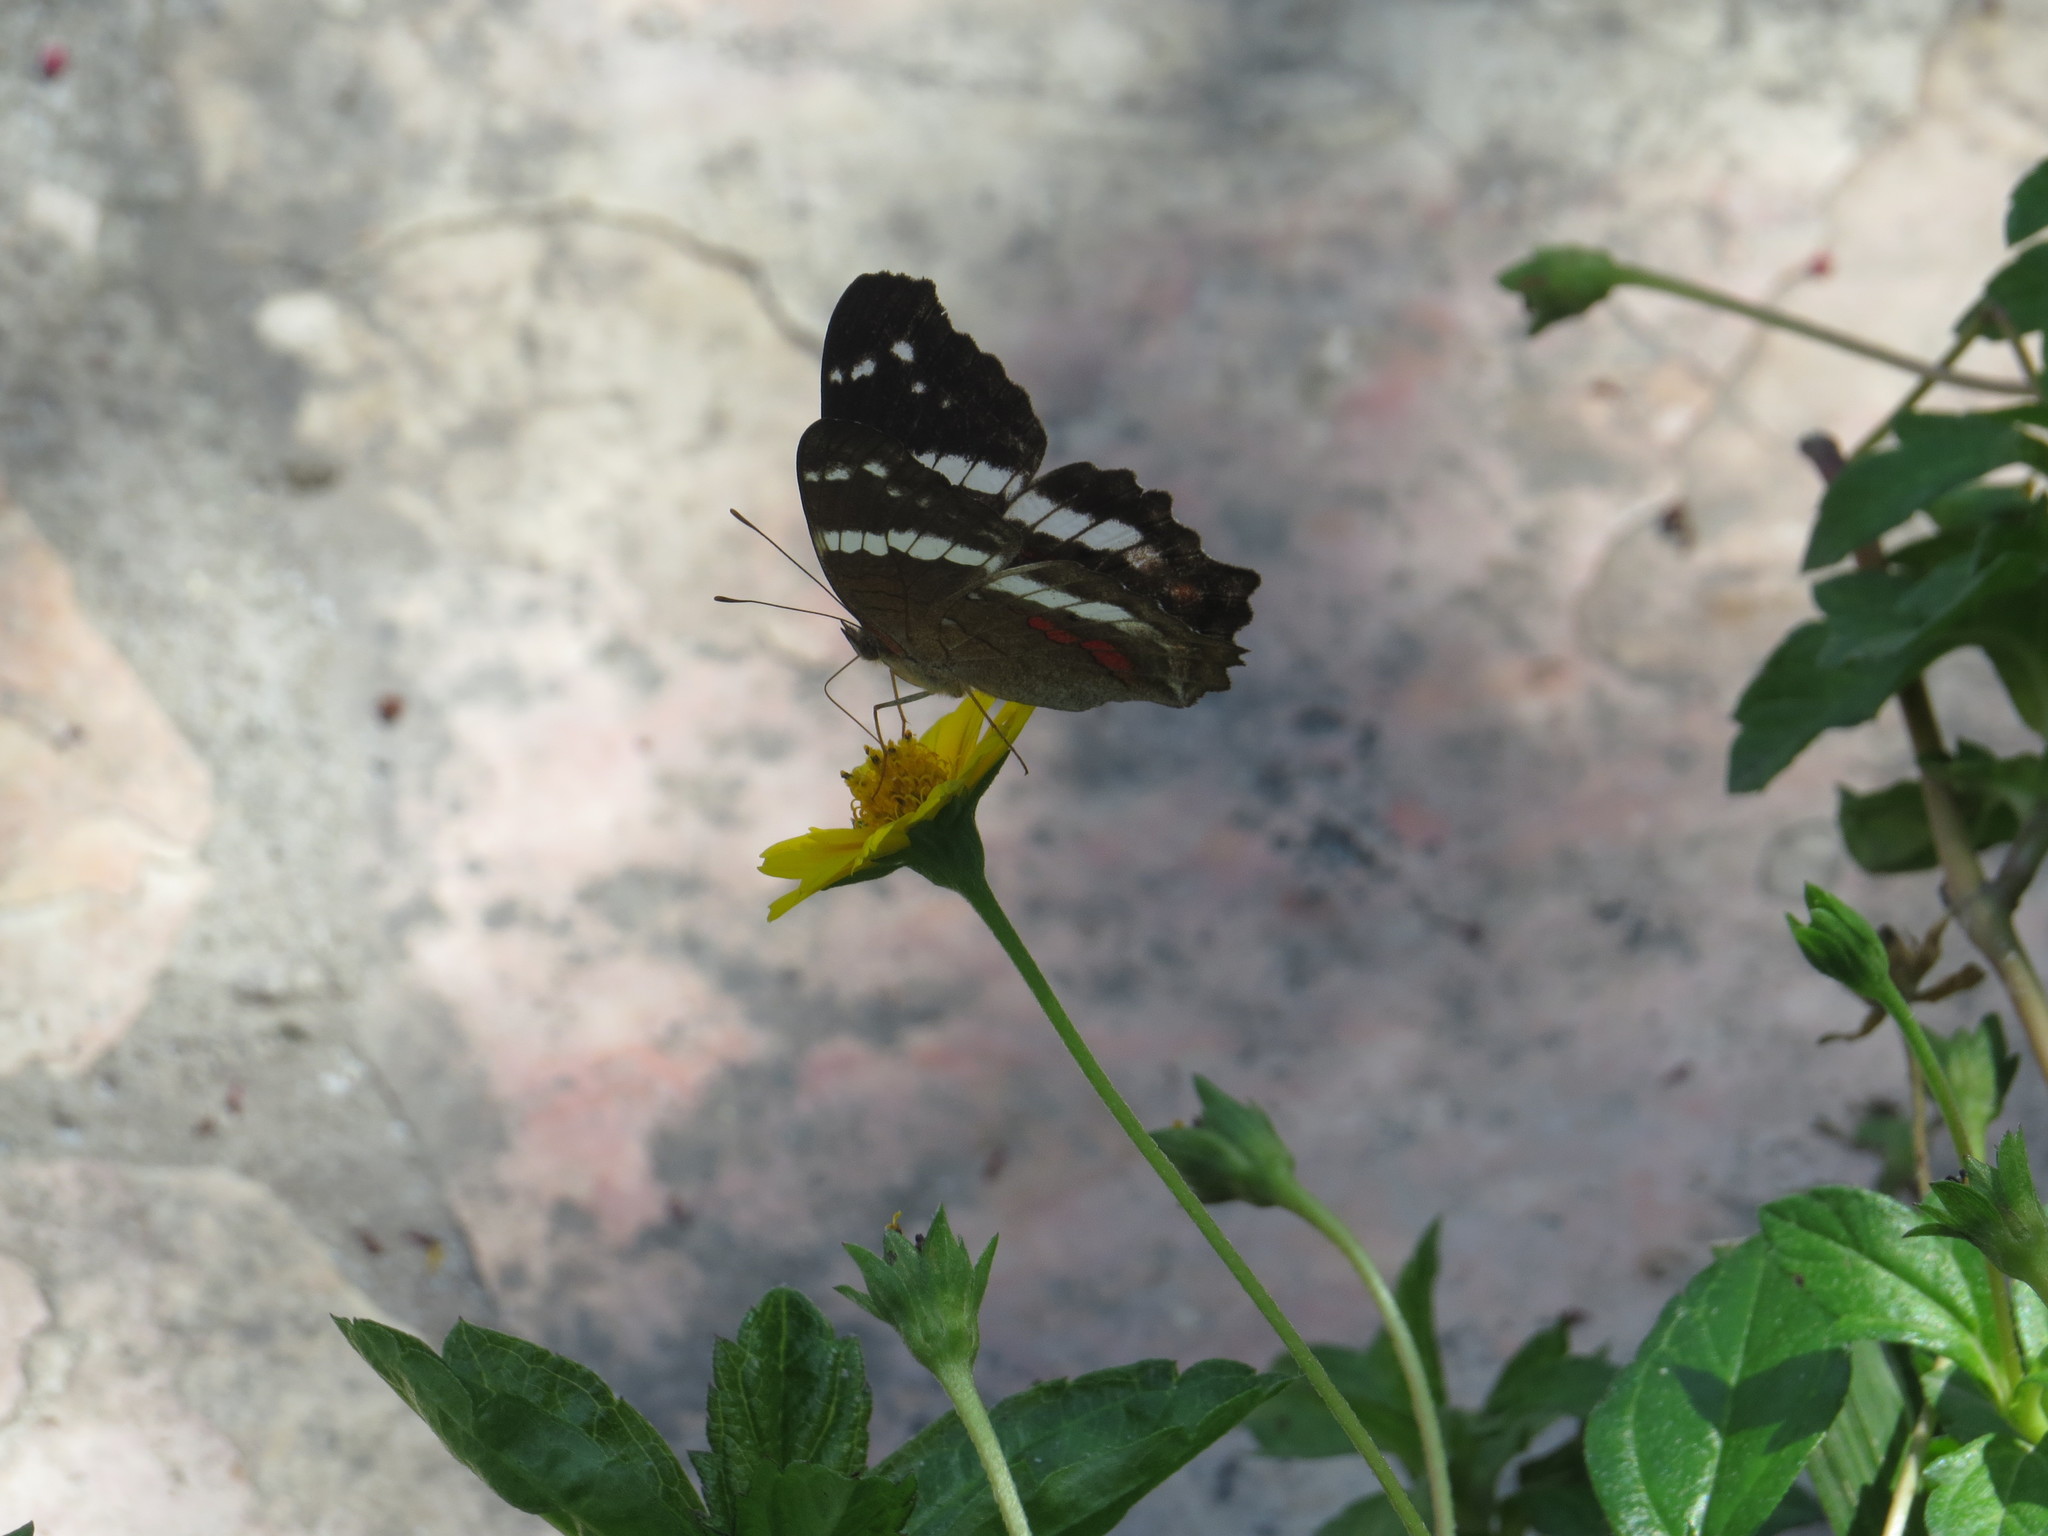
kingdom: Animalia
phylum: Arthropoda
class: Insecta
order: Lepidoptera
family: Nymphalidae
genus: Anartia
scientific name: Anartia fatima
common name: Banded peacock
